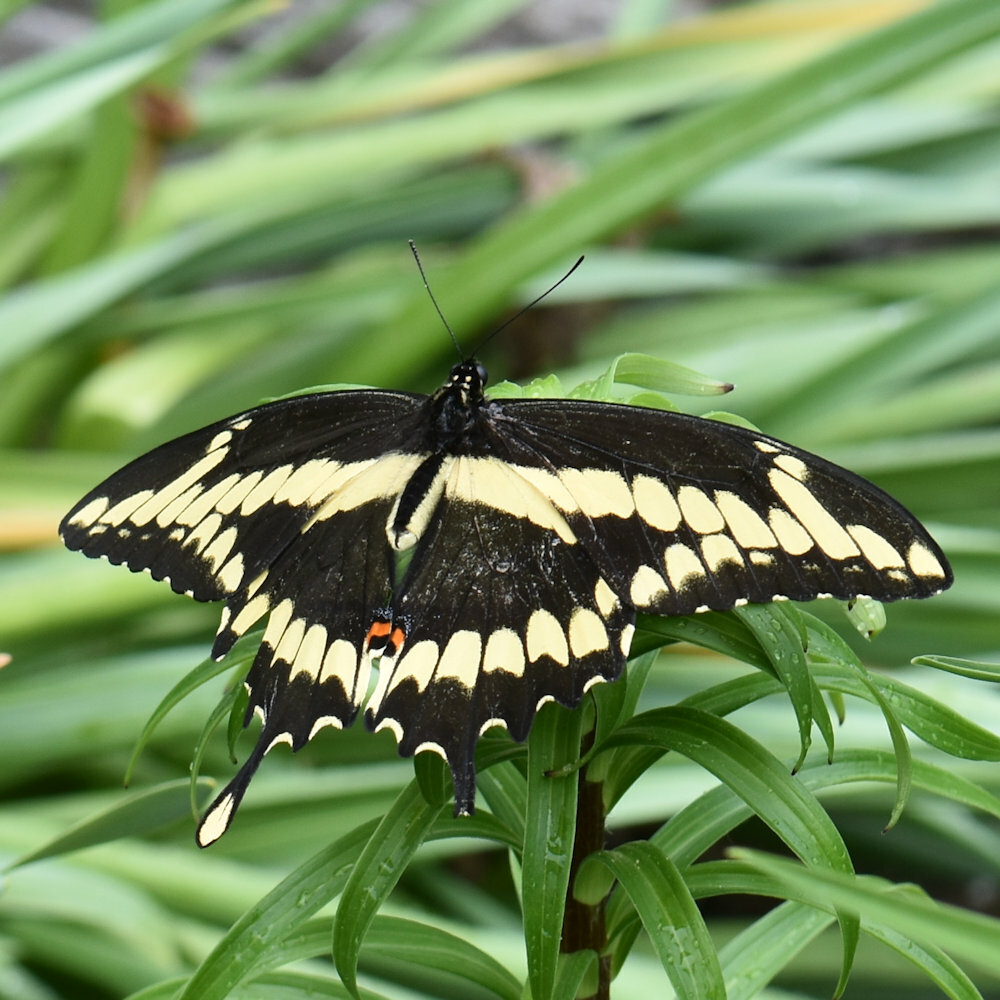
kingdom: Animalia
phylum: Arthropoda
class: Insecta
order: Lepidoptera
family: Papilionidae
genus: Papilio
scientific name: Papilio cresphontes
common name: Giant swallowtail
